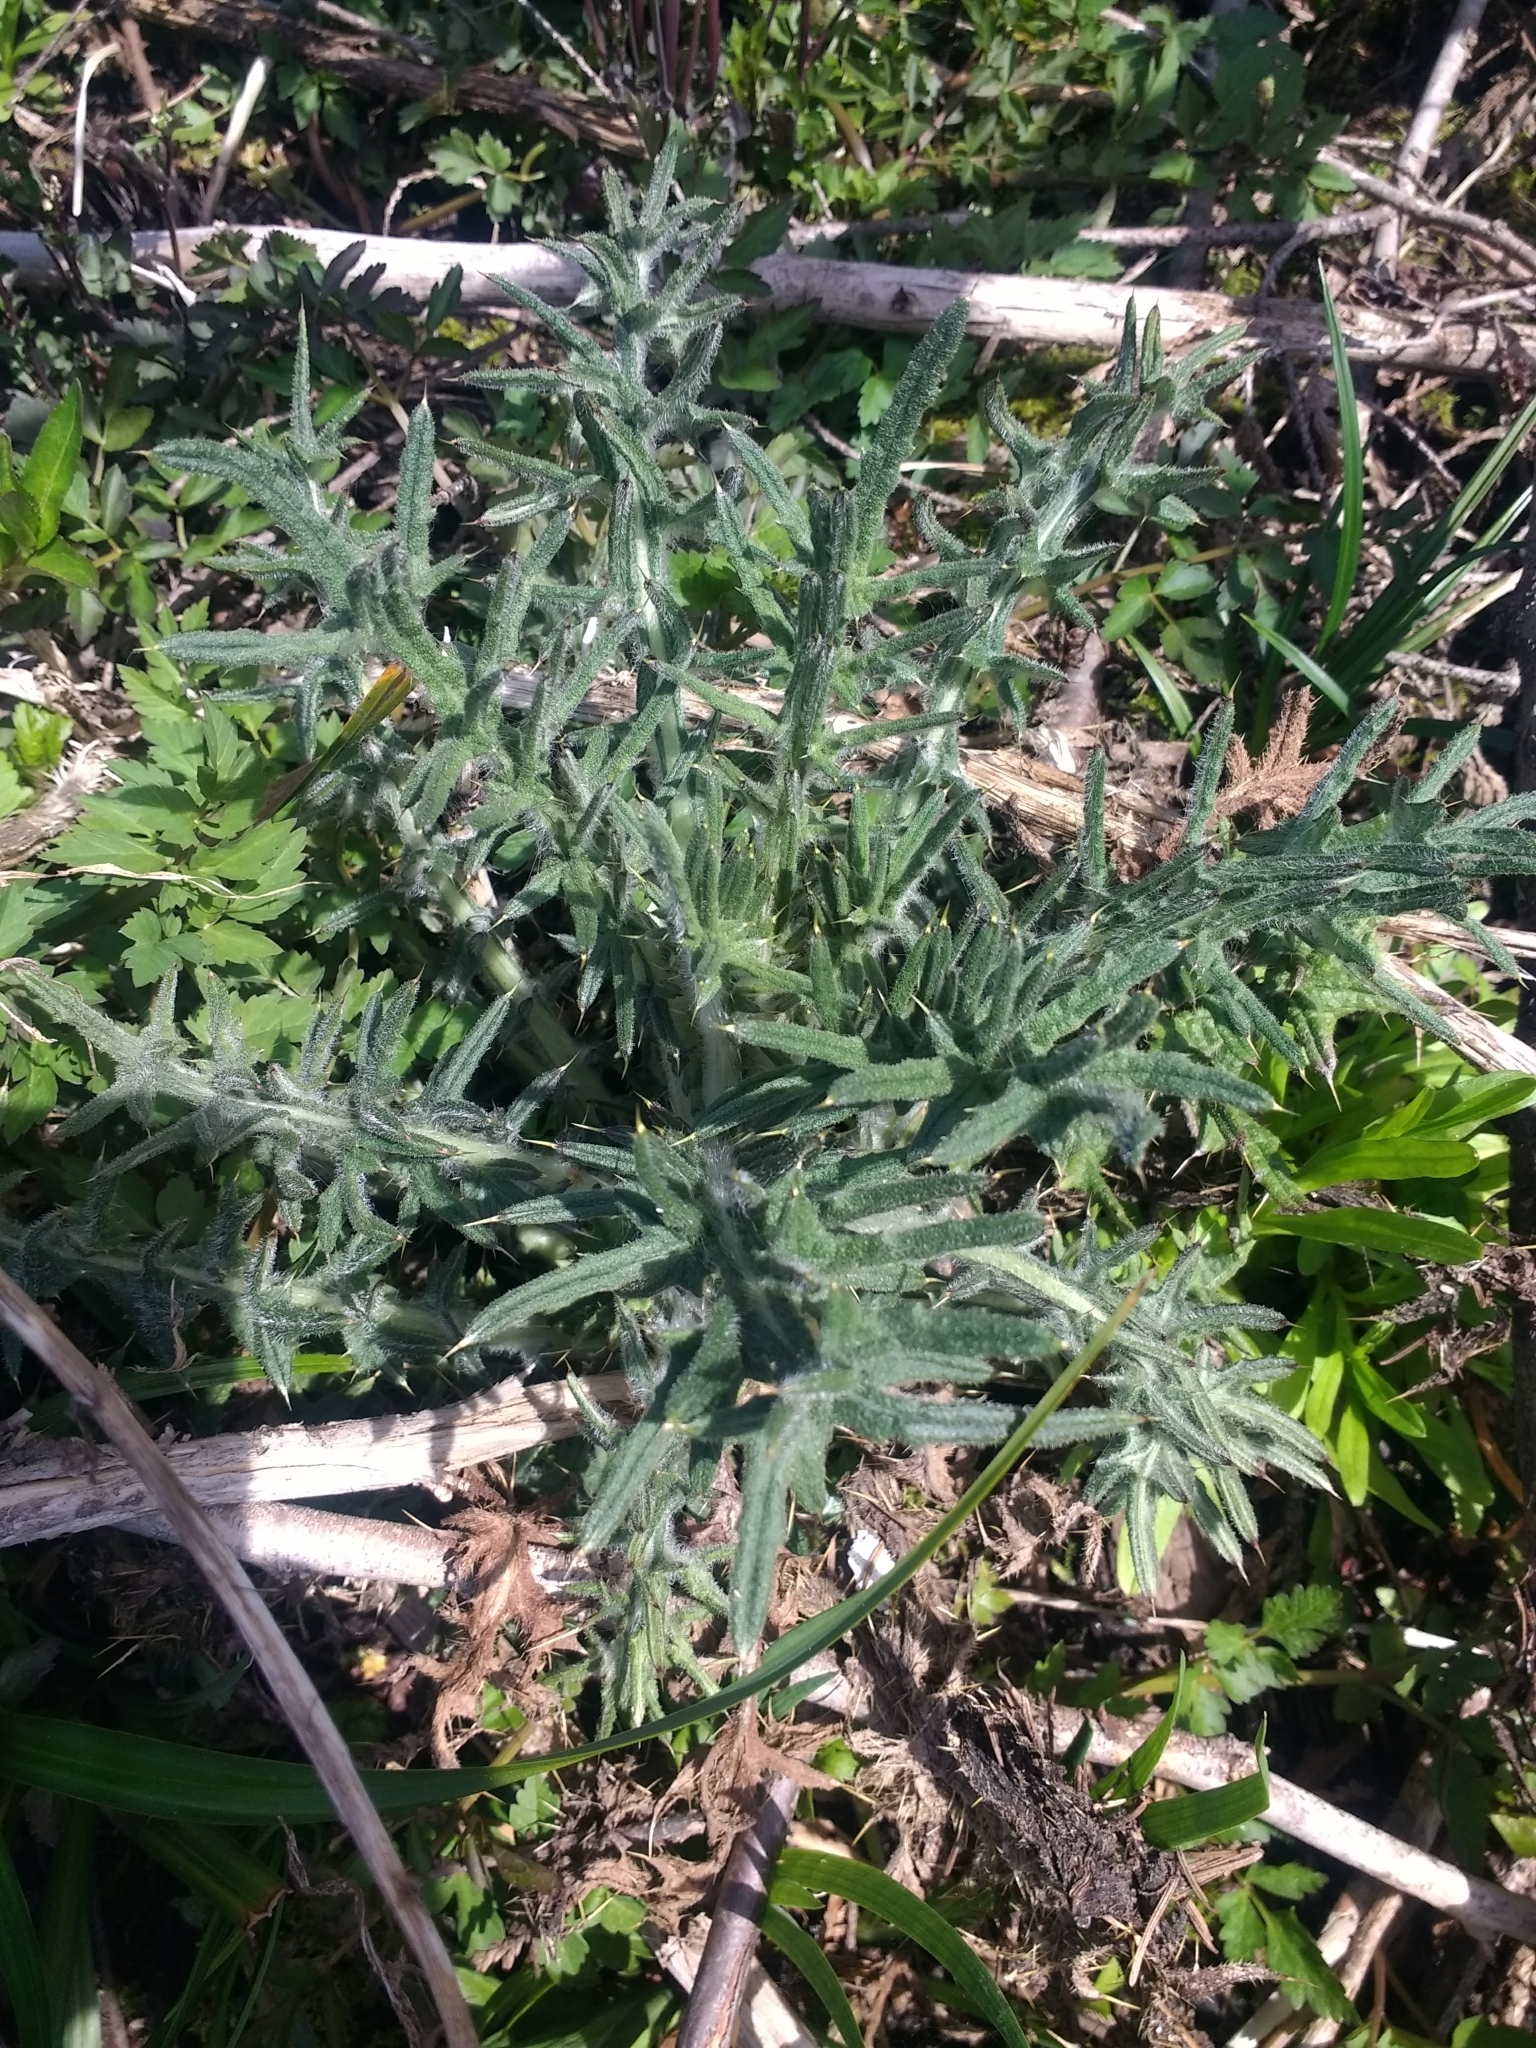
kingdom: Plantae
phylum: Tracheophyta
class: Magnoliopsida
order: Asterales
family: Asteraceae
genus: Cirsium
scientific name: Cirsium vulgare
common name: Bull thistle
